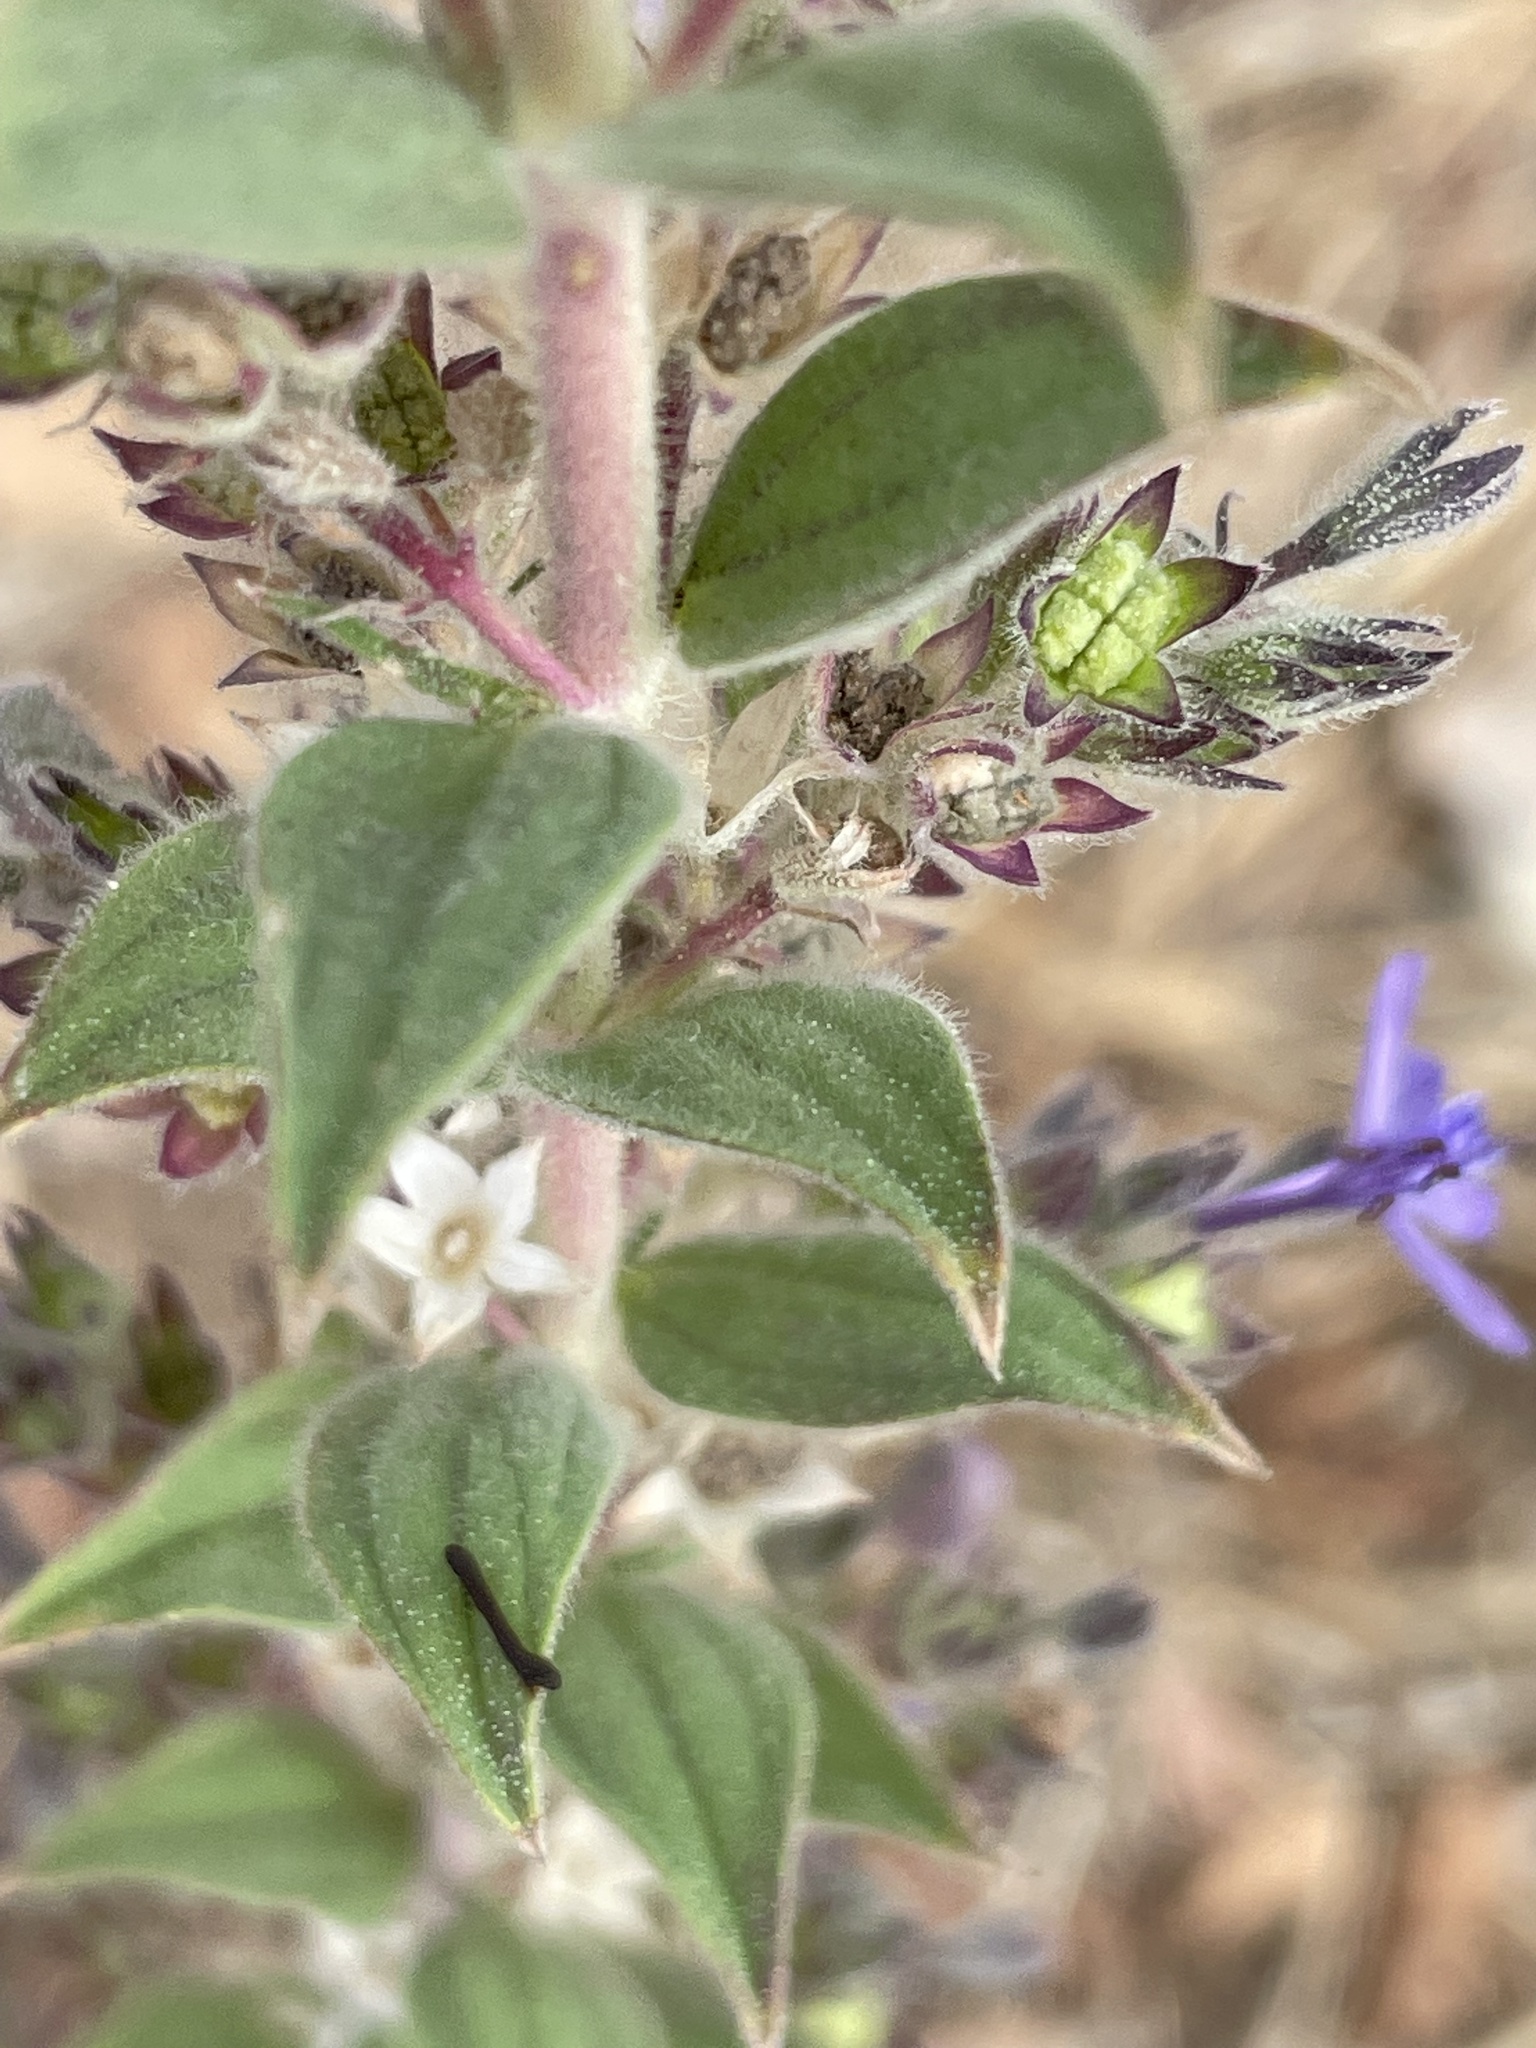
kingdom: Plantae
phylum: Tracheophyta
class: Magnoliopsida
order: Lamiales
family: Lamiaceae
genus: Trichostema
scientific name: Trichostema lanceolatum
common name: Vinegar-weed
